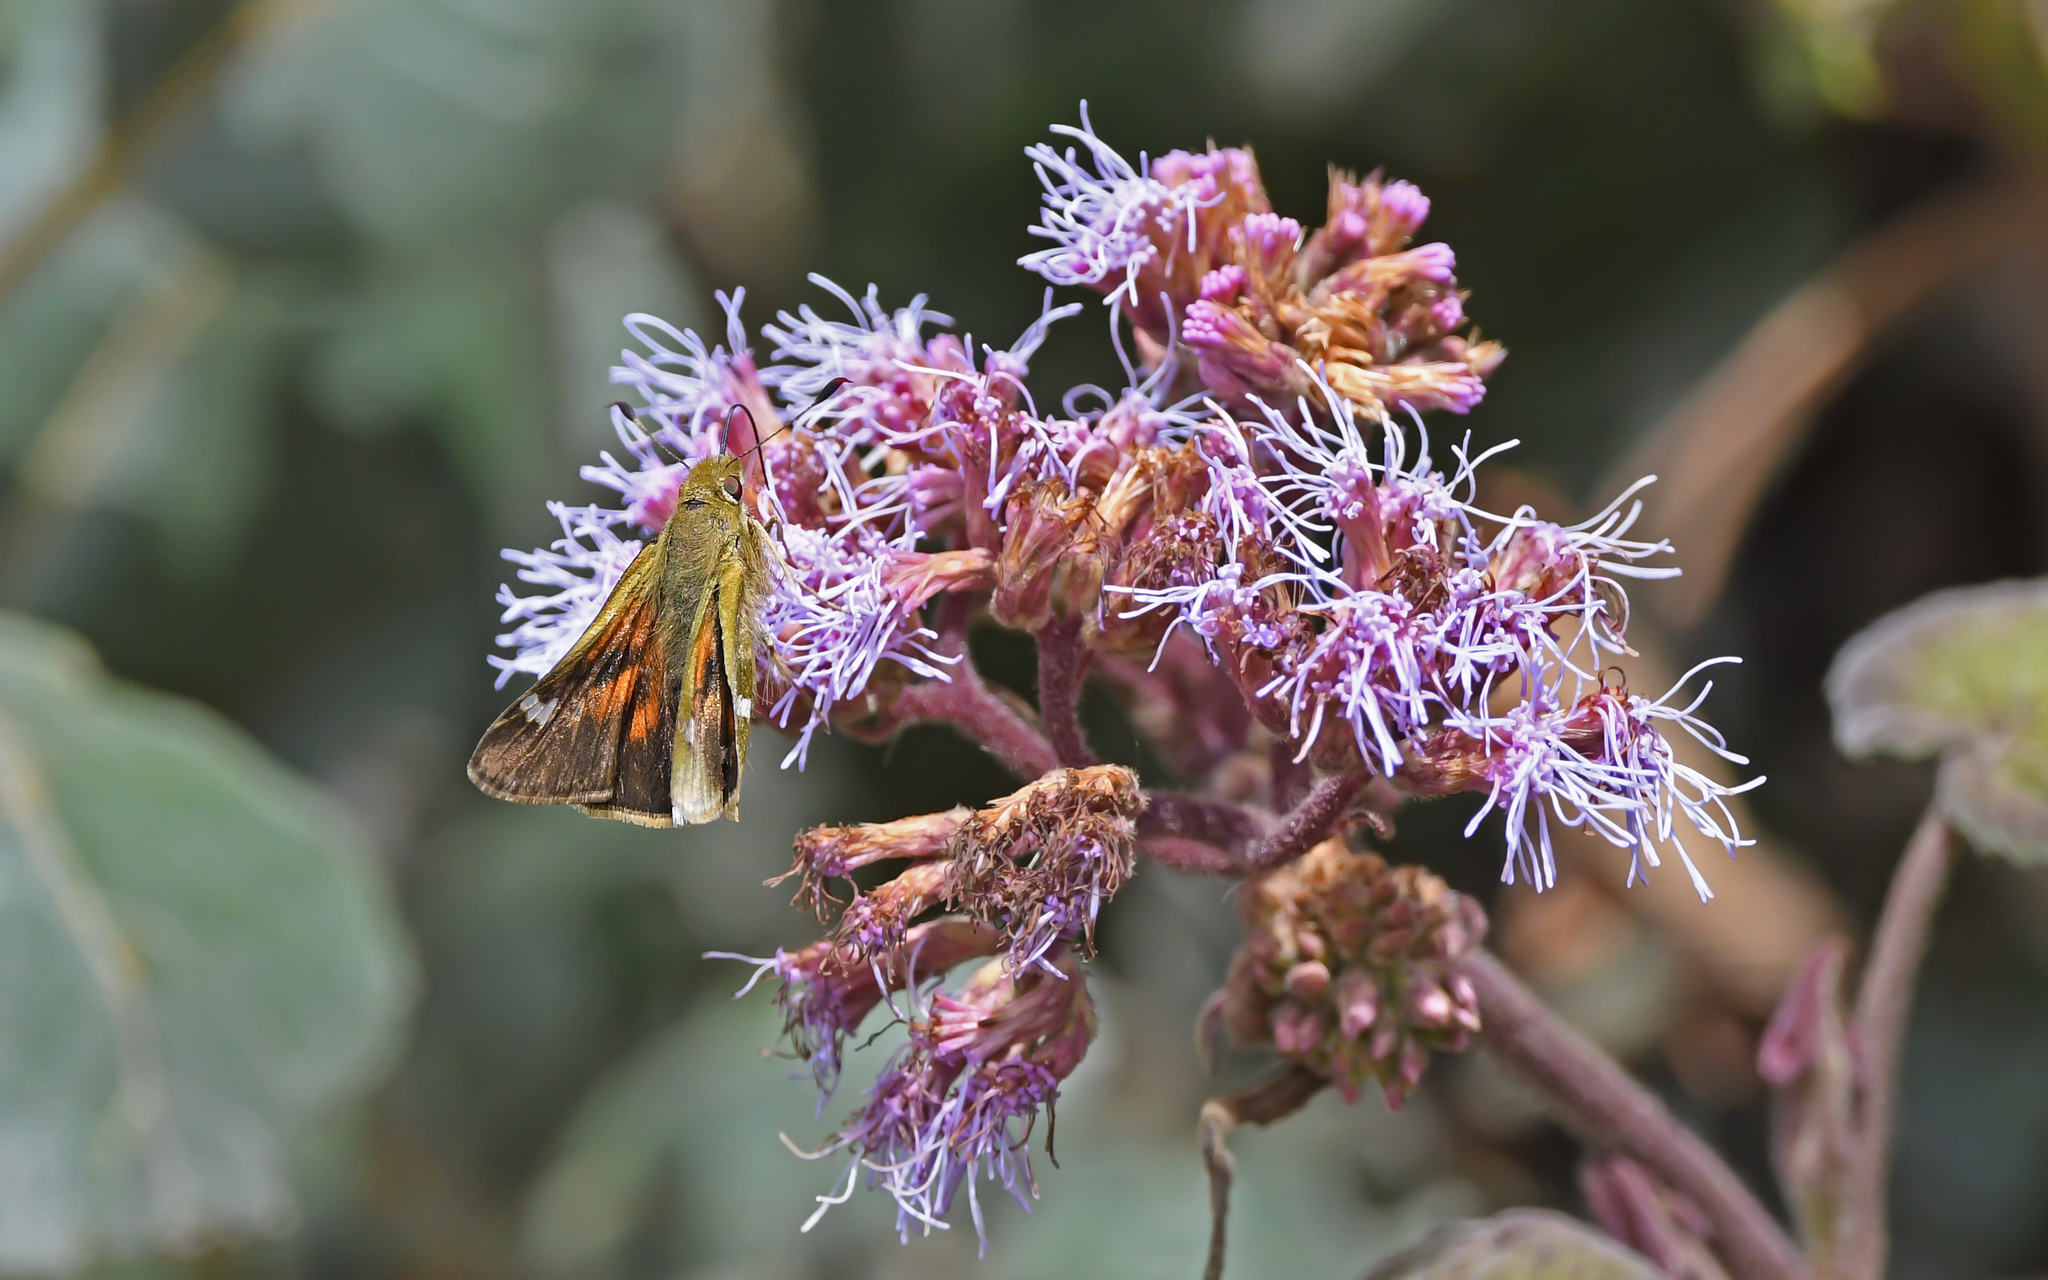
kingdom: Animalia
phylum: Arthropoda
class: Insecta
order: Lepidoptera
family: Hesperiidae
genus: Serdis
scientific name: Serdis viridicans
